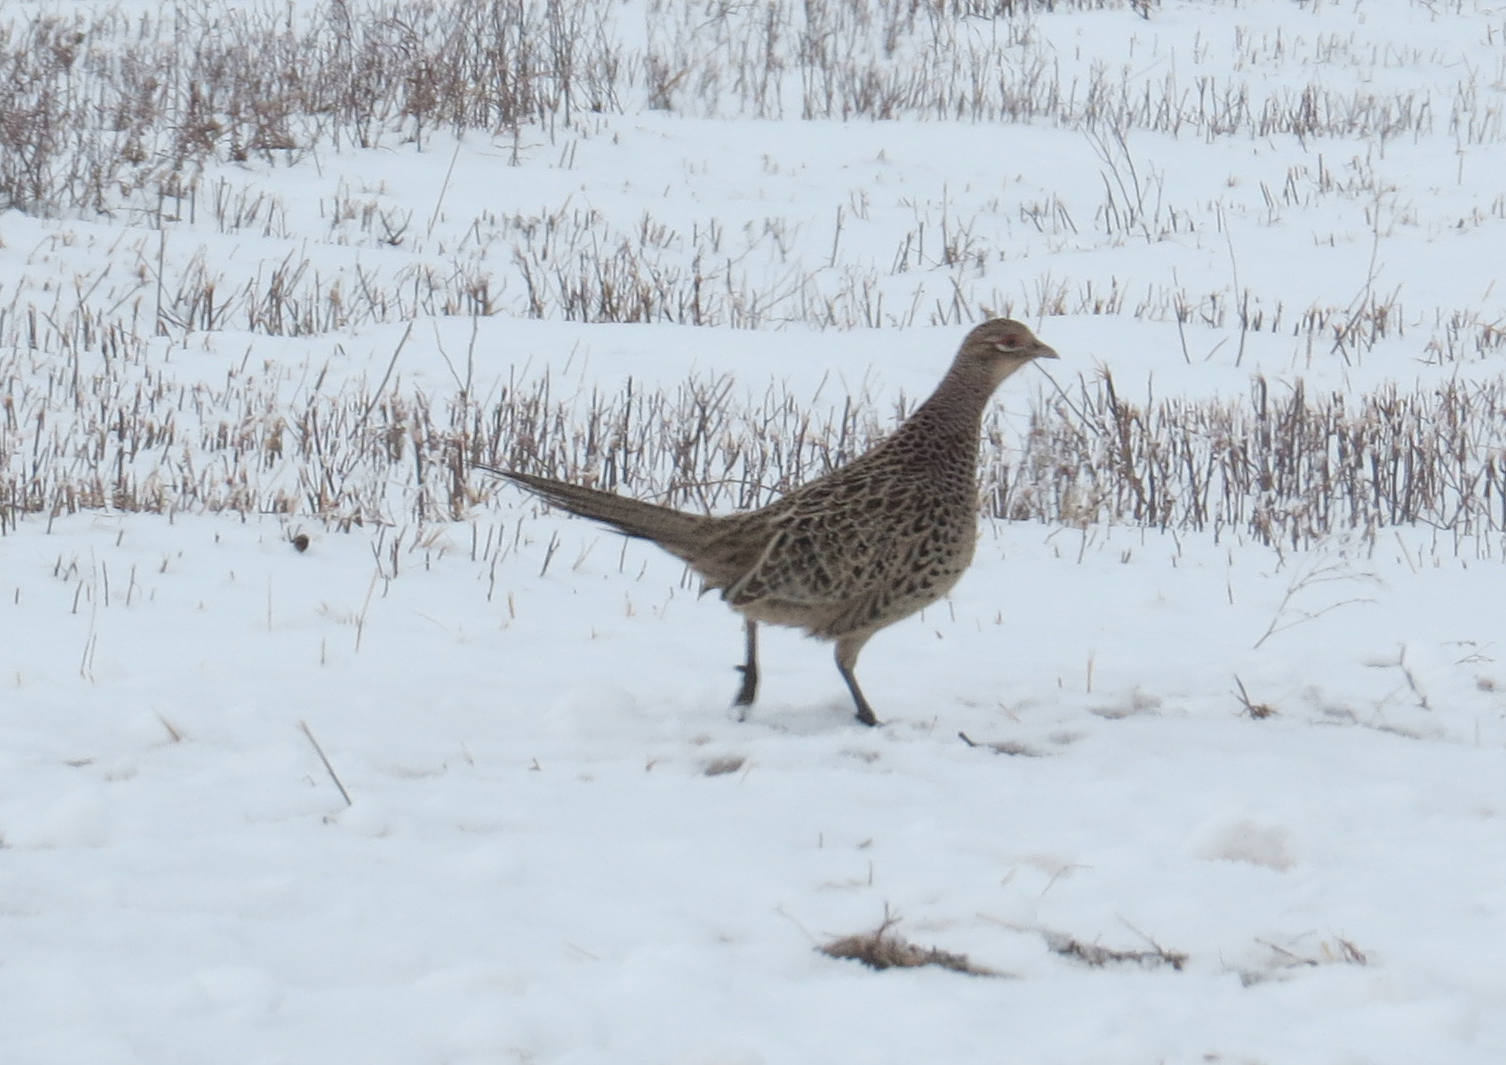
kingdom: Animalia
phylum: Chordata
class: Aves
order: Galliformes
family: Phasianidae
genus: Phasianus
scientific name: Phasianus colchicus
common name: Common pheasant
